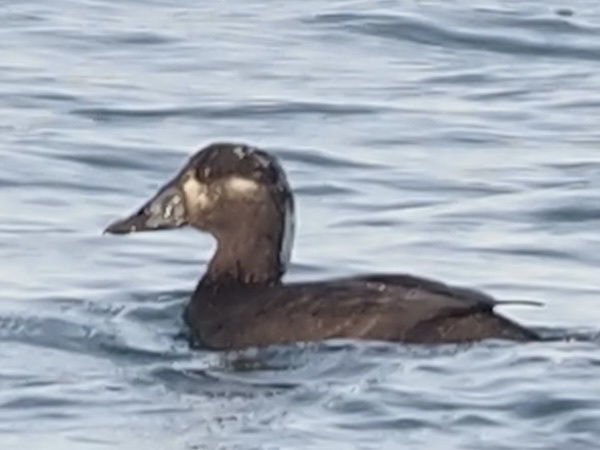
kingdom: Animalia
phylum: Chordata
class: Aves
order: Anseriformes
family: Anatidae
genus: Melanitta
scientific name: Melanitta perspicillata
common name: Surf scoter
